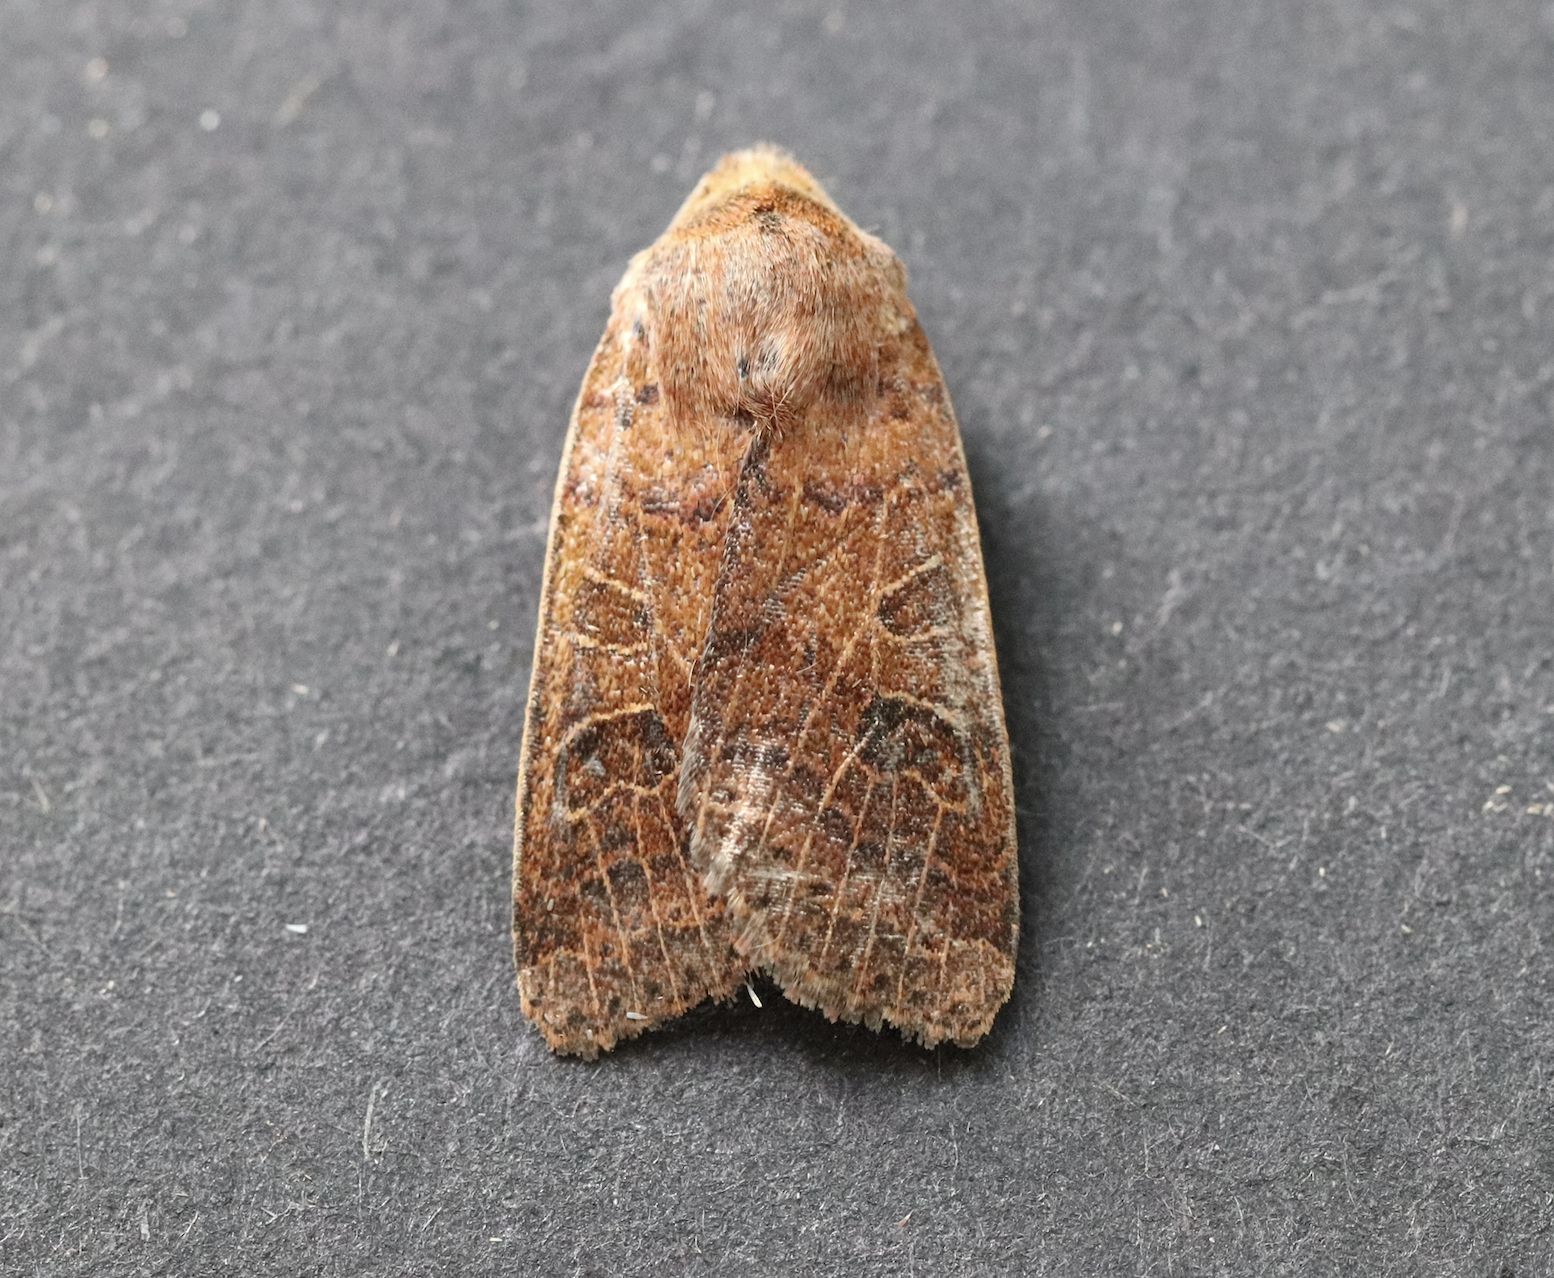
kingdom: Animalia
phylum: Arthropoda
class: Insecta
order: Lepidoptera
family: Noctuidae
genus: Agrochola
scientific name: Agrochola nitida
